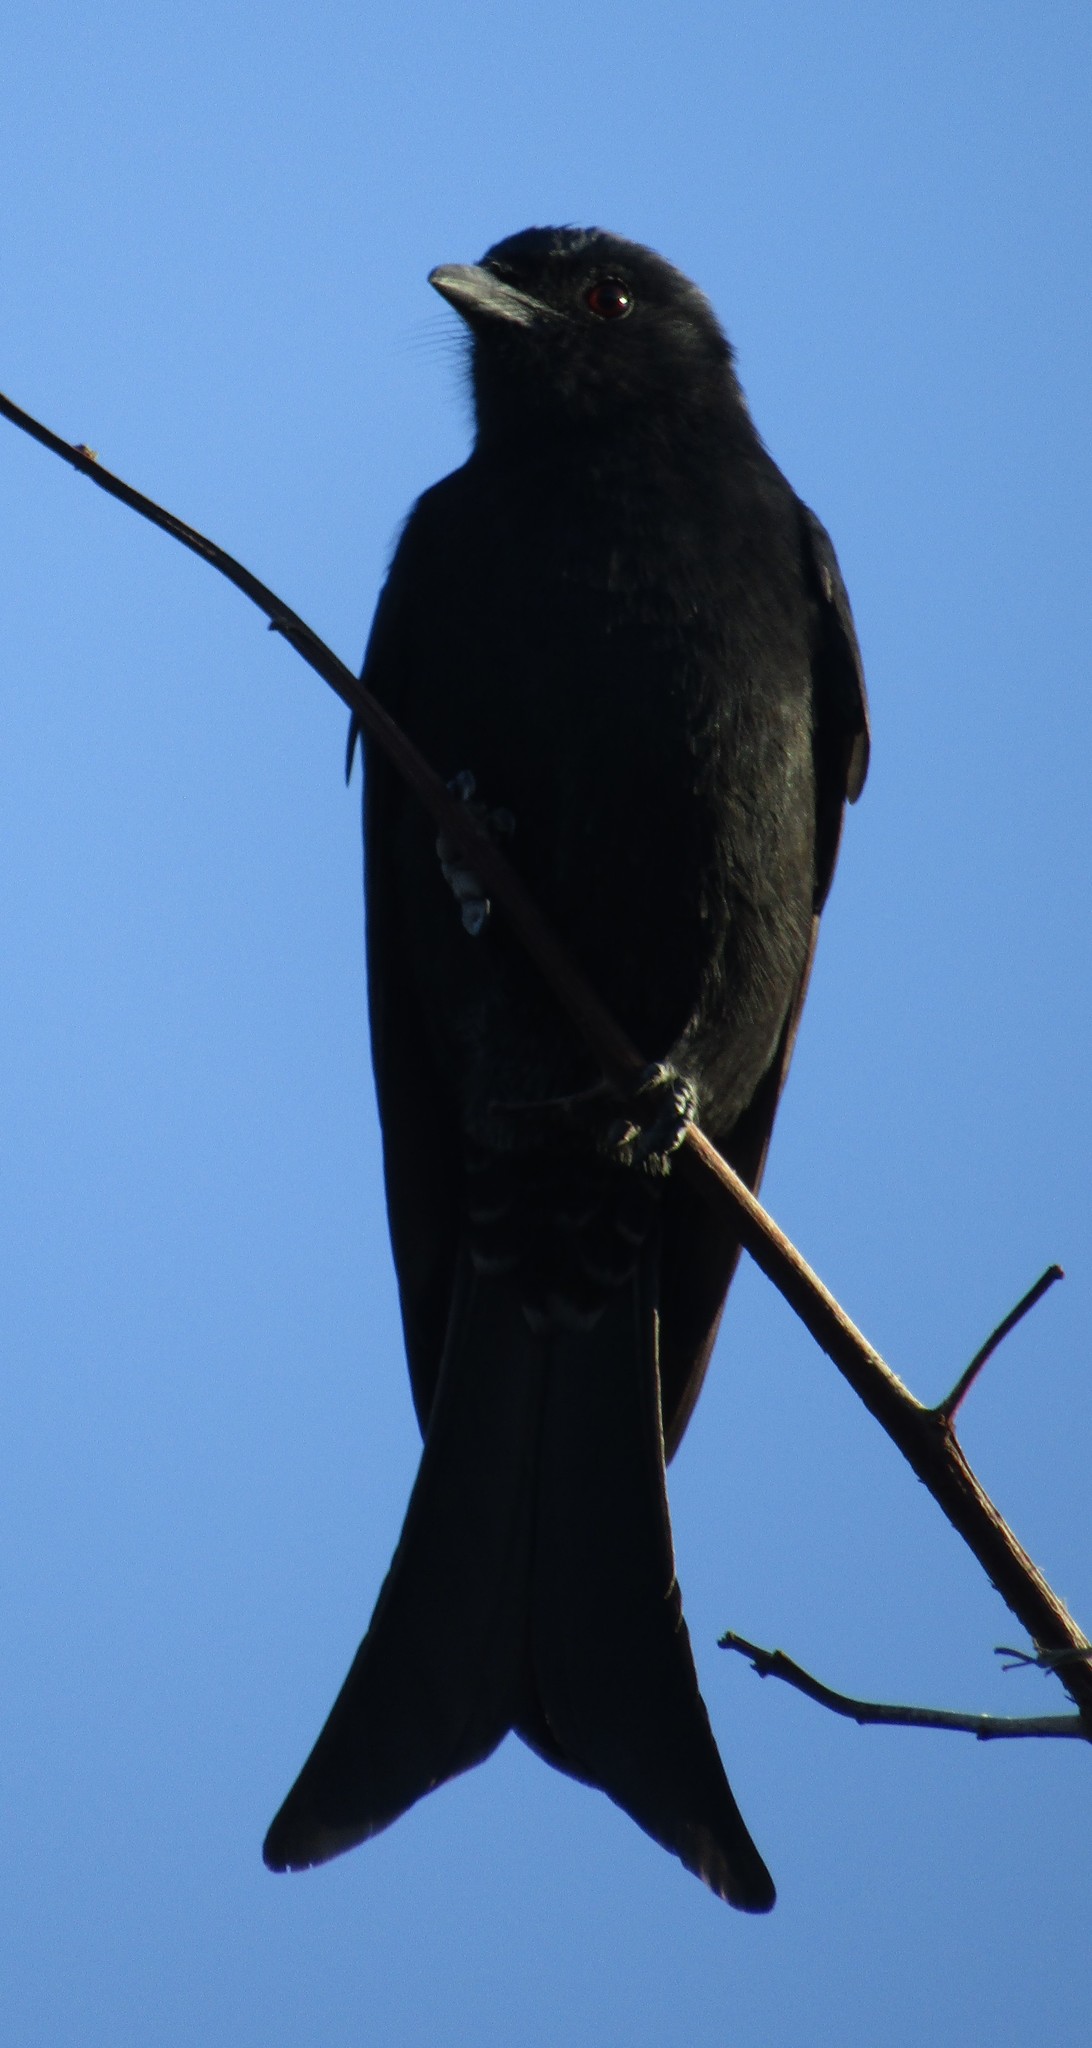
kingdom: Animalia
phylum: Chordata
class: Aves
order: Passeriformes
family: Dicruridae
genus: Dicrurus
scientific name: Dicrurus adsimilis
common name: Fork-tailed drongo
